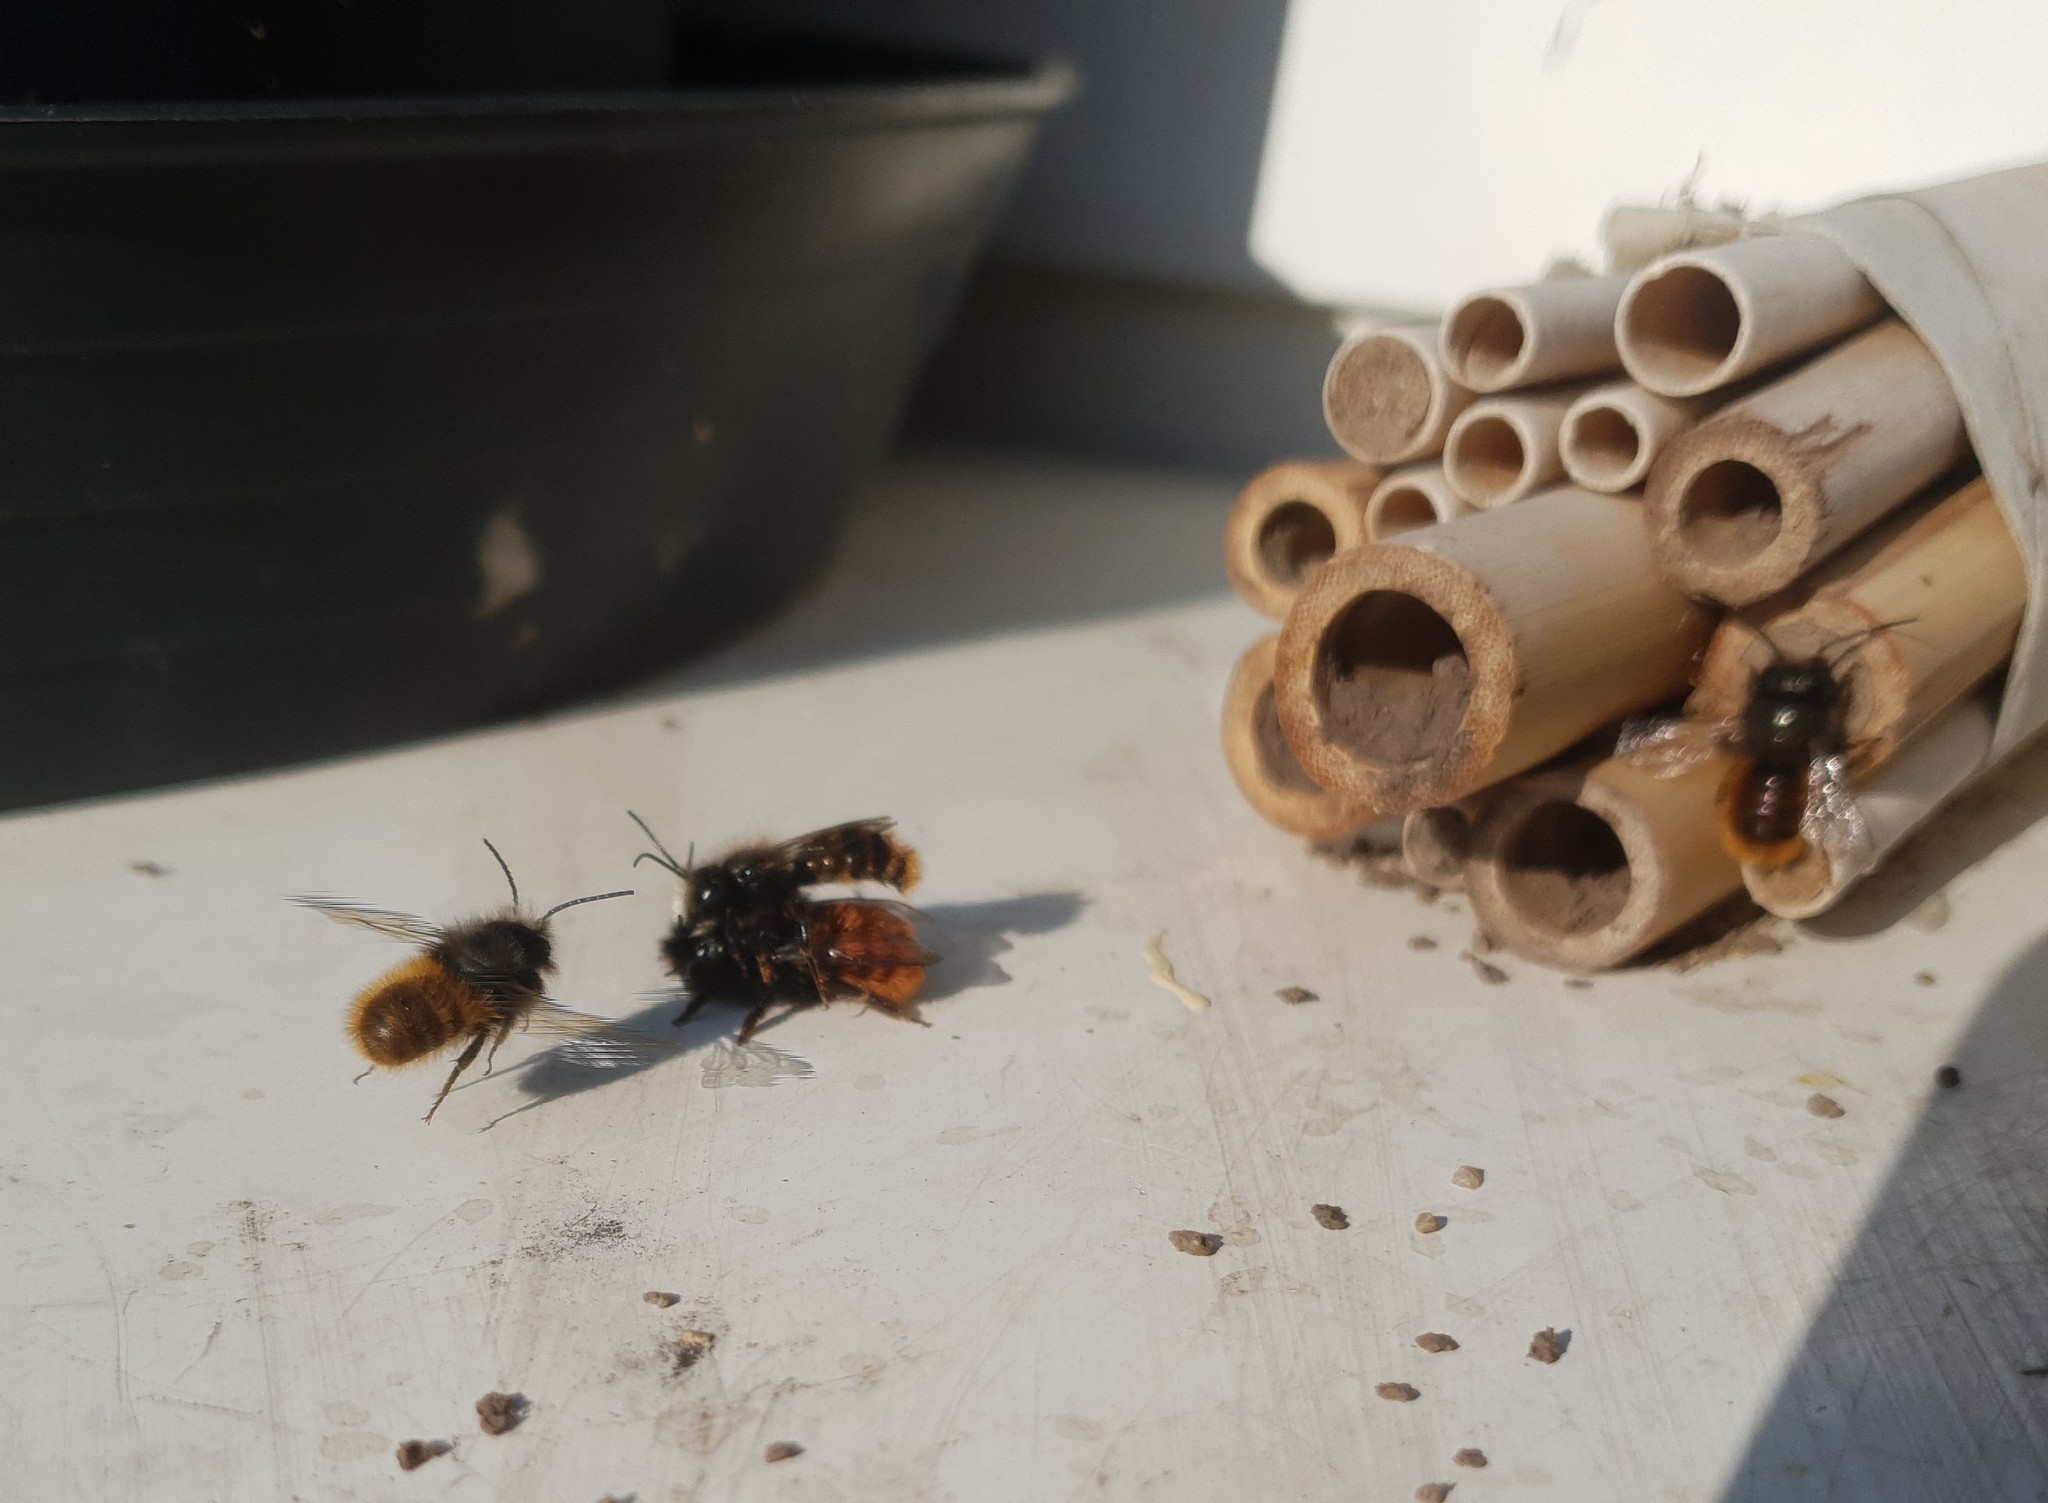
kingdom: Animalia
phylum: Arthropoda
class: Insecta
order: Hymenoptera
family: Megachilidae
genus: Osmia
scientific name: Osmia cornuta
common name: Mason bee
